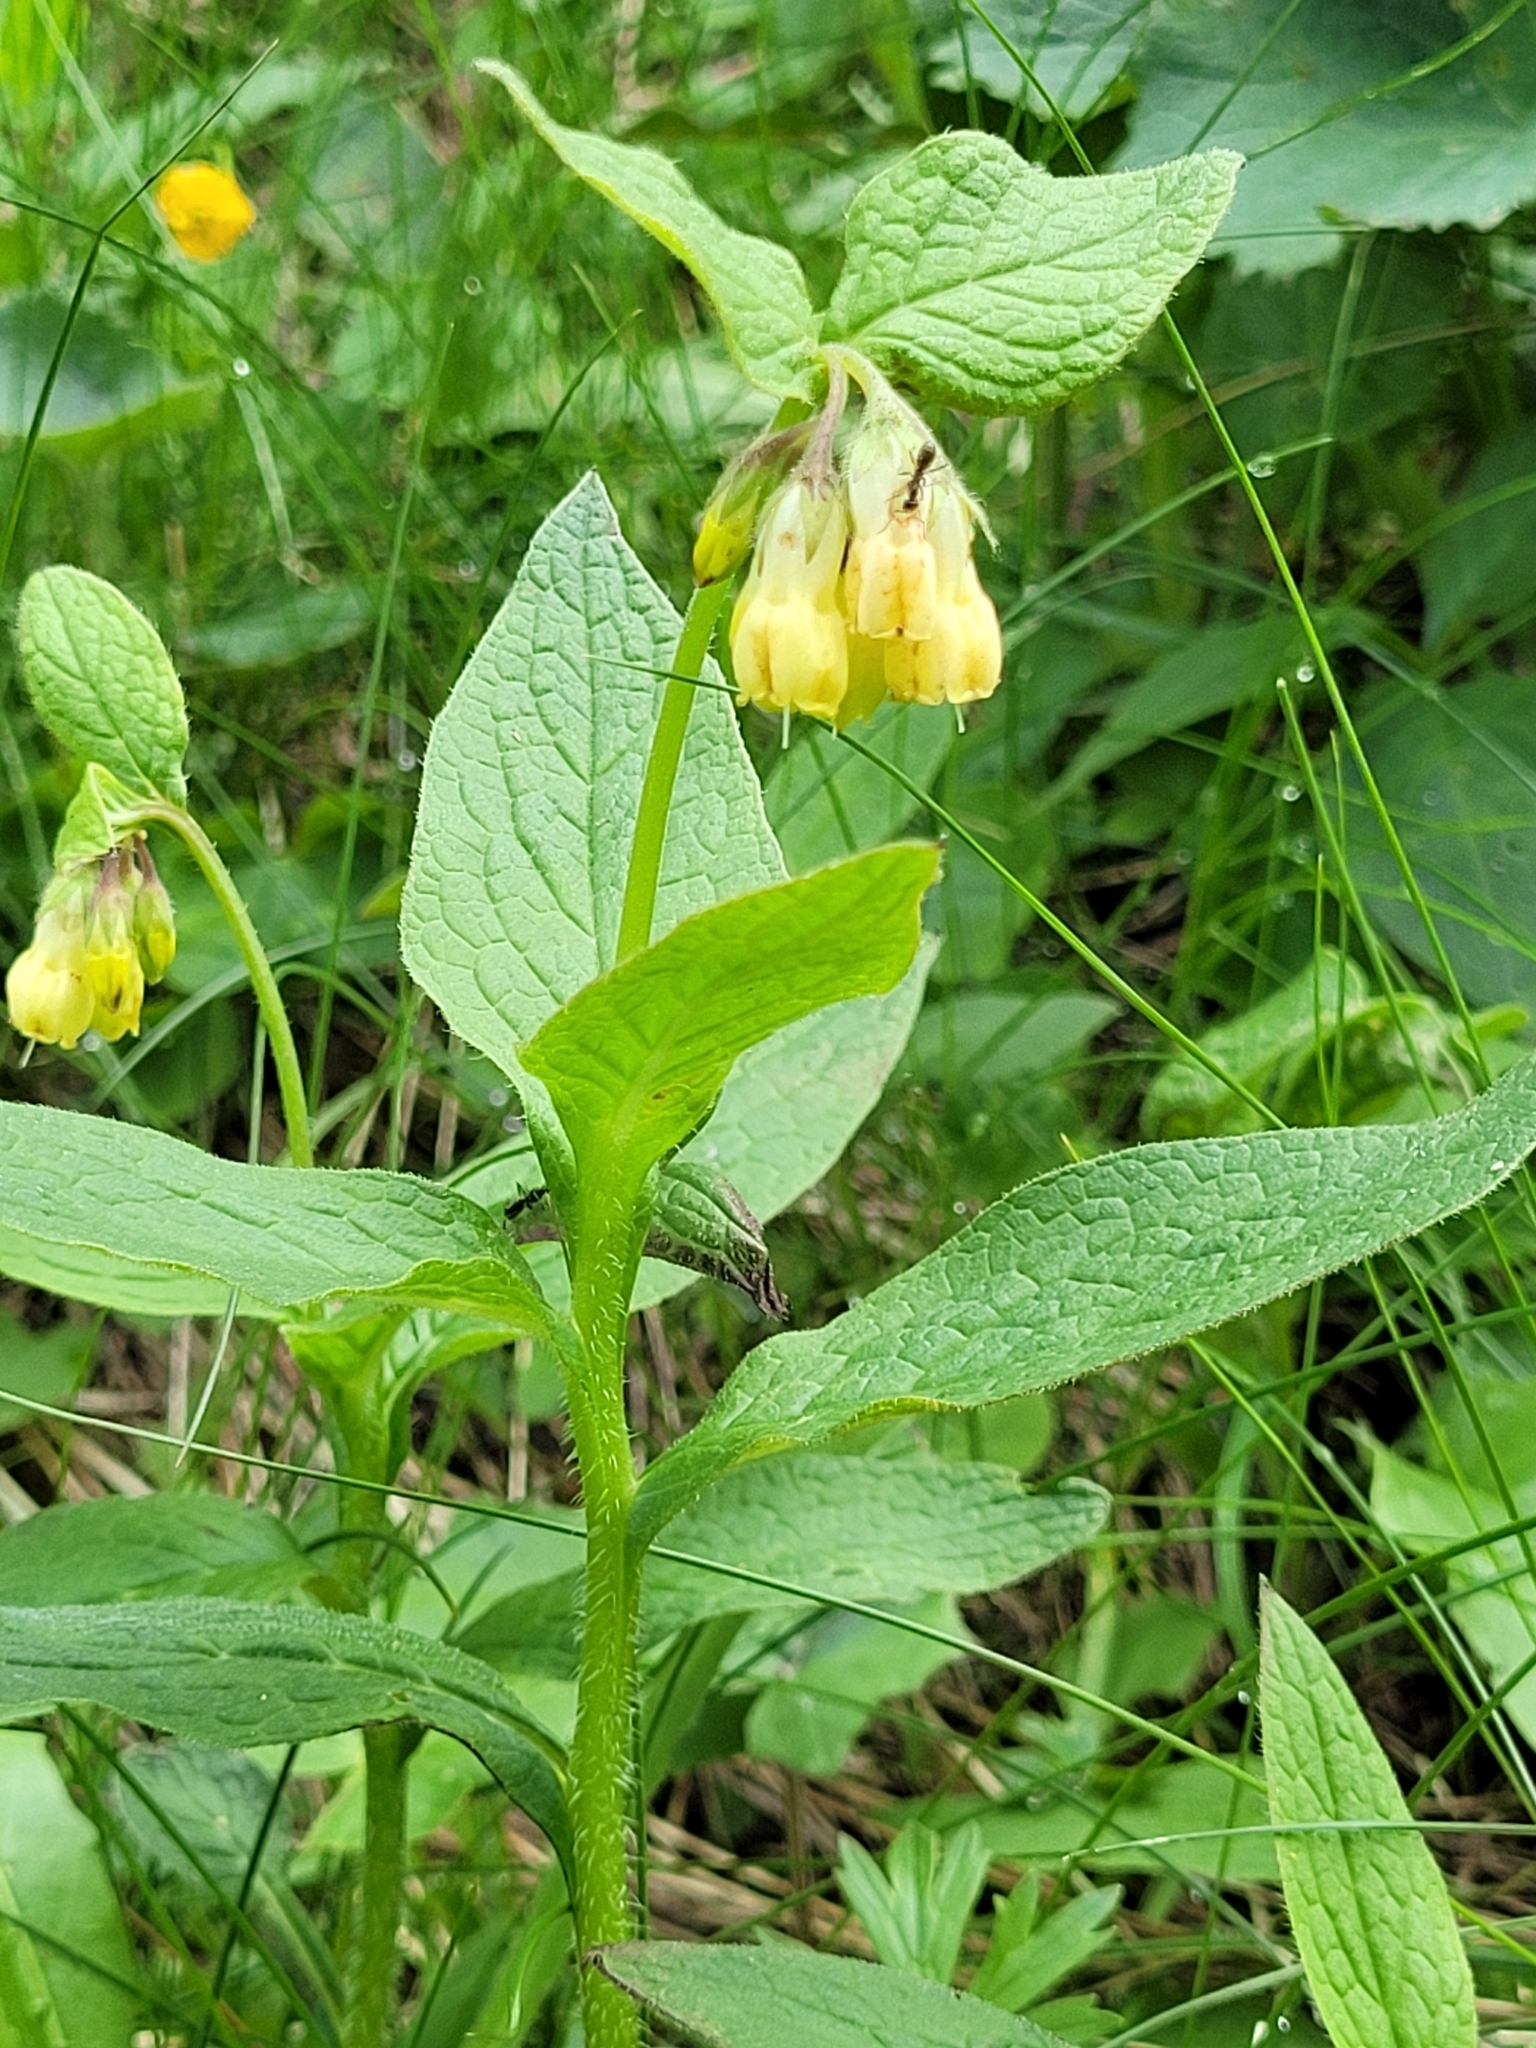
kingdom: Plantae
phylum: Tracheophyta
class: Magnoliopsida
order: Boraginales
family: Boraginaceae
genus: Symphytum
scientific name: Symphytum tuberosum
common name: Tuberous comfrey
